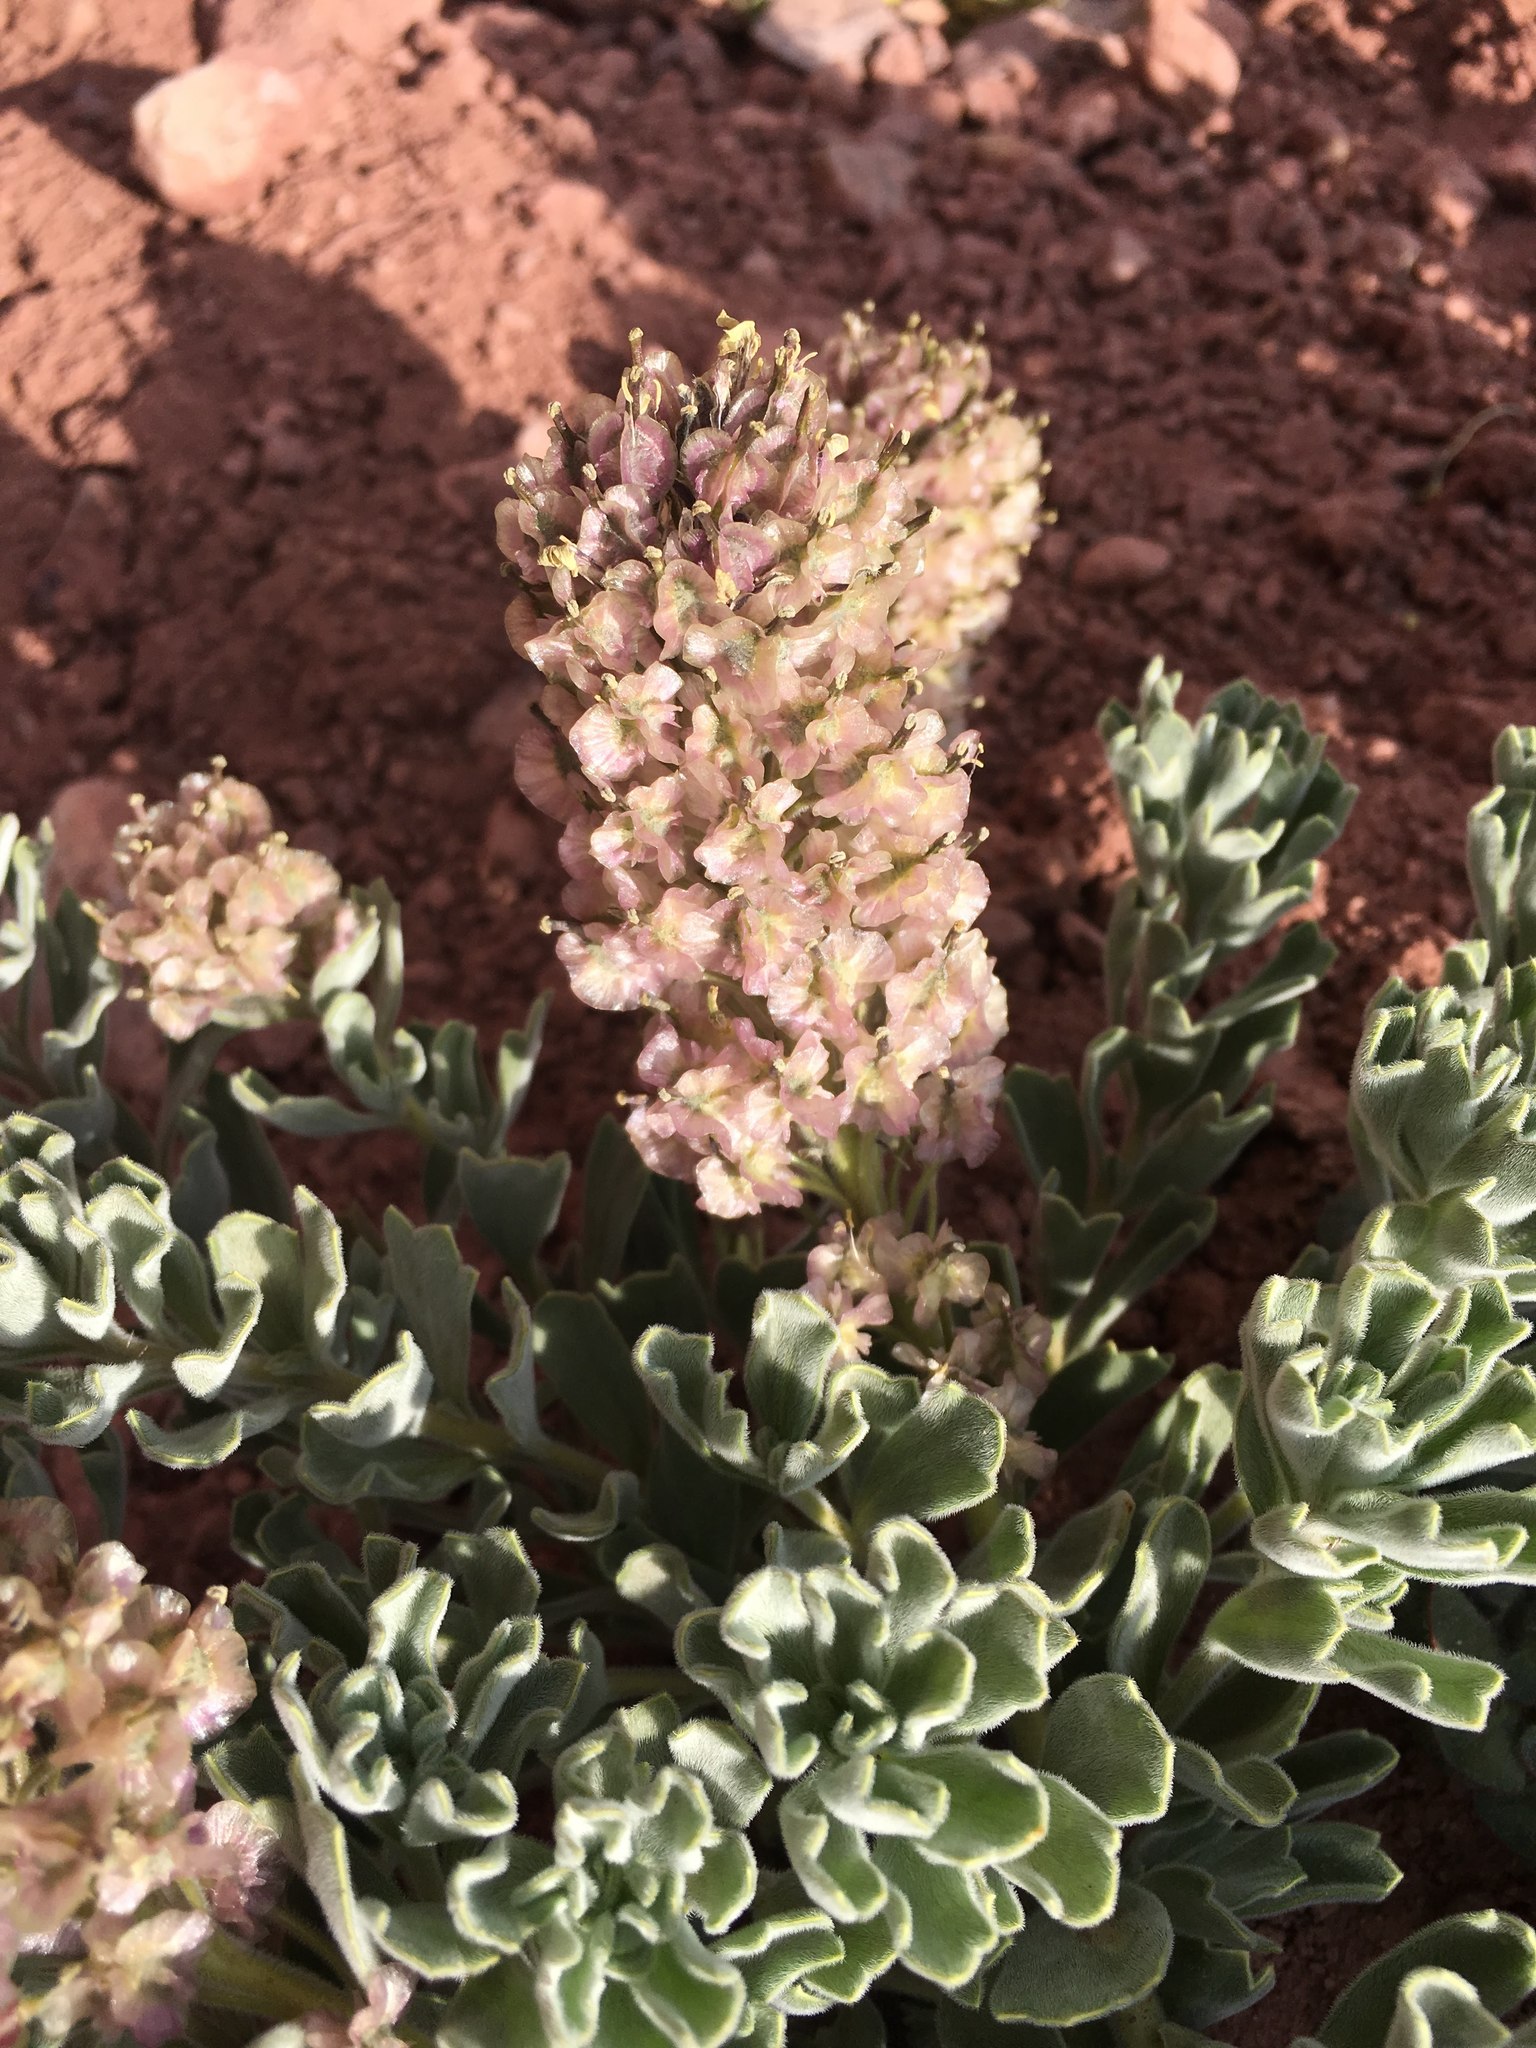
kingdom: Plantae
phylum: Tracheophyta
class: Magnoliopsida
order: Brassicales
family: Brassicaceae
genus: Menonvillea
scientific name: Menonvillea cuneata
